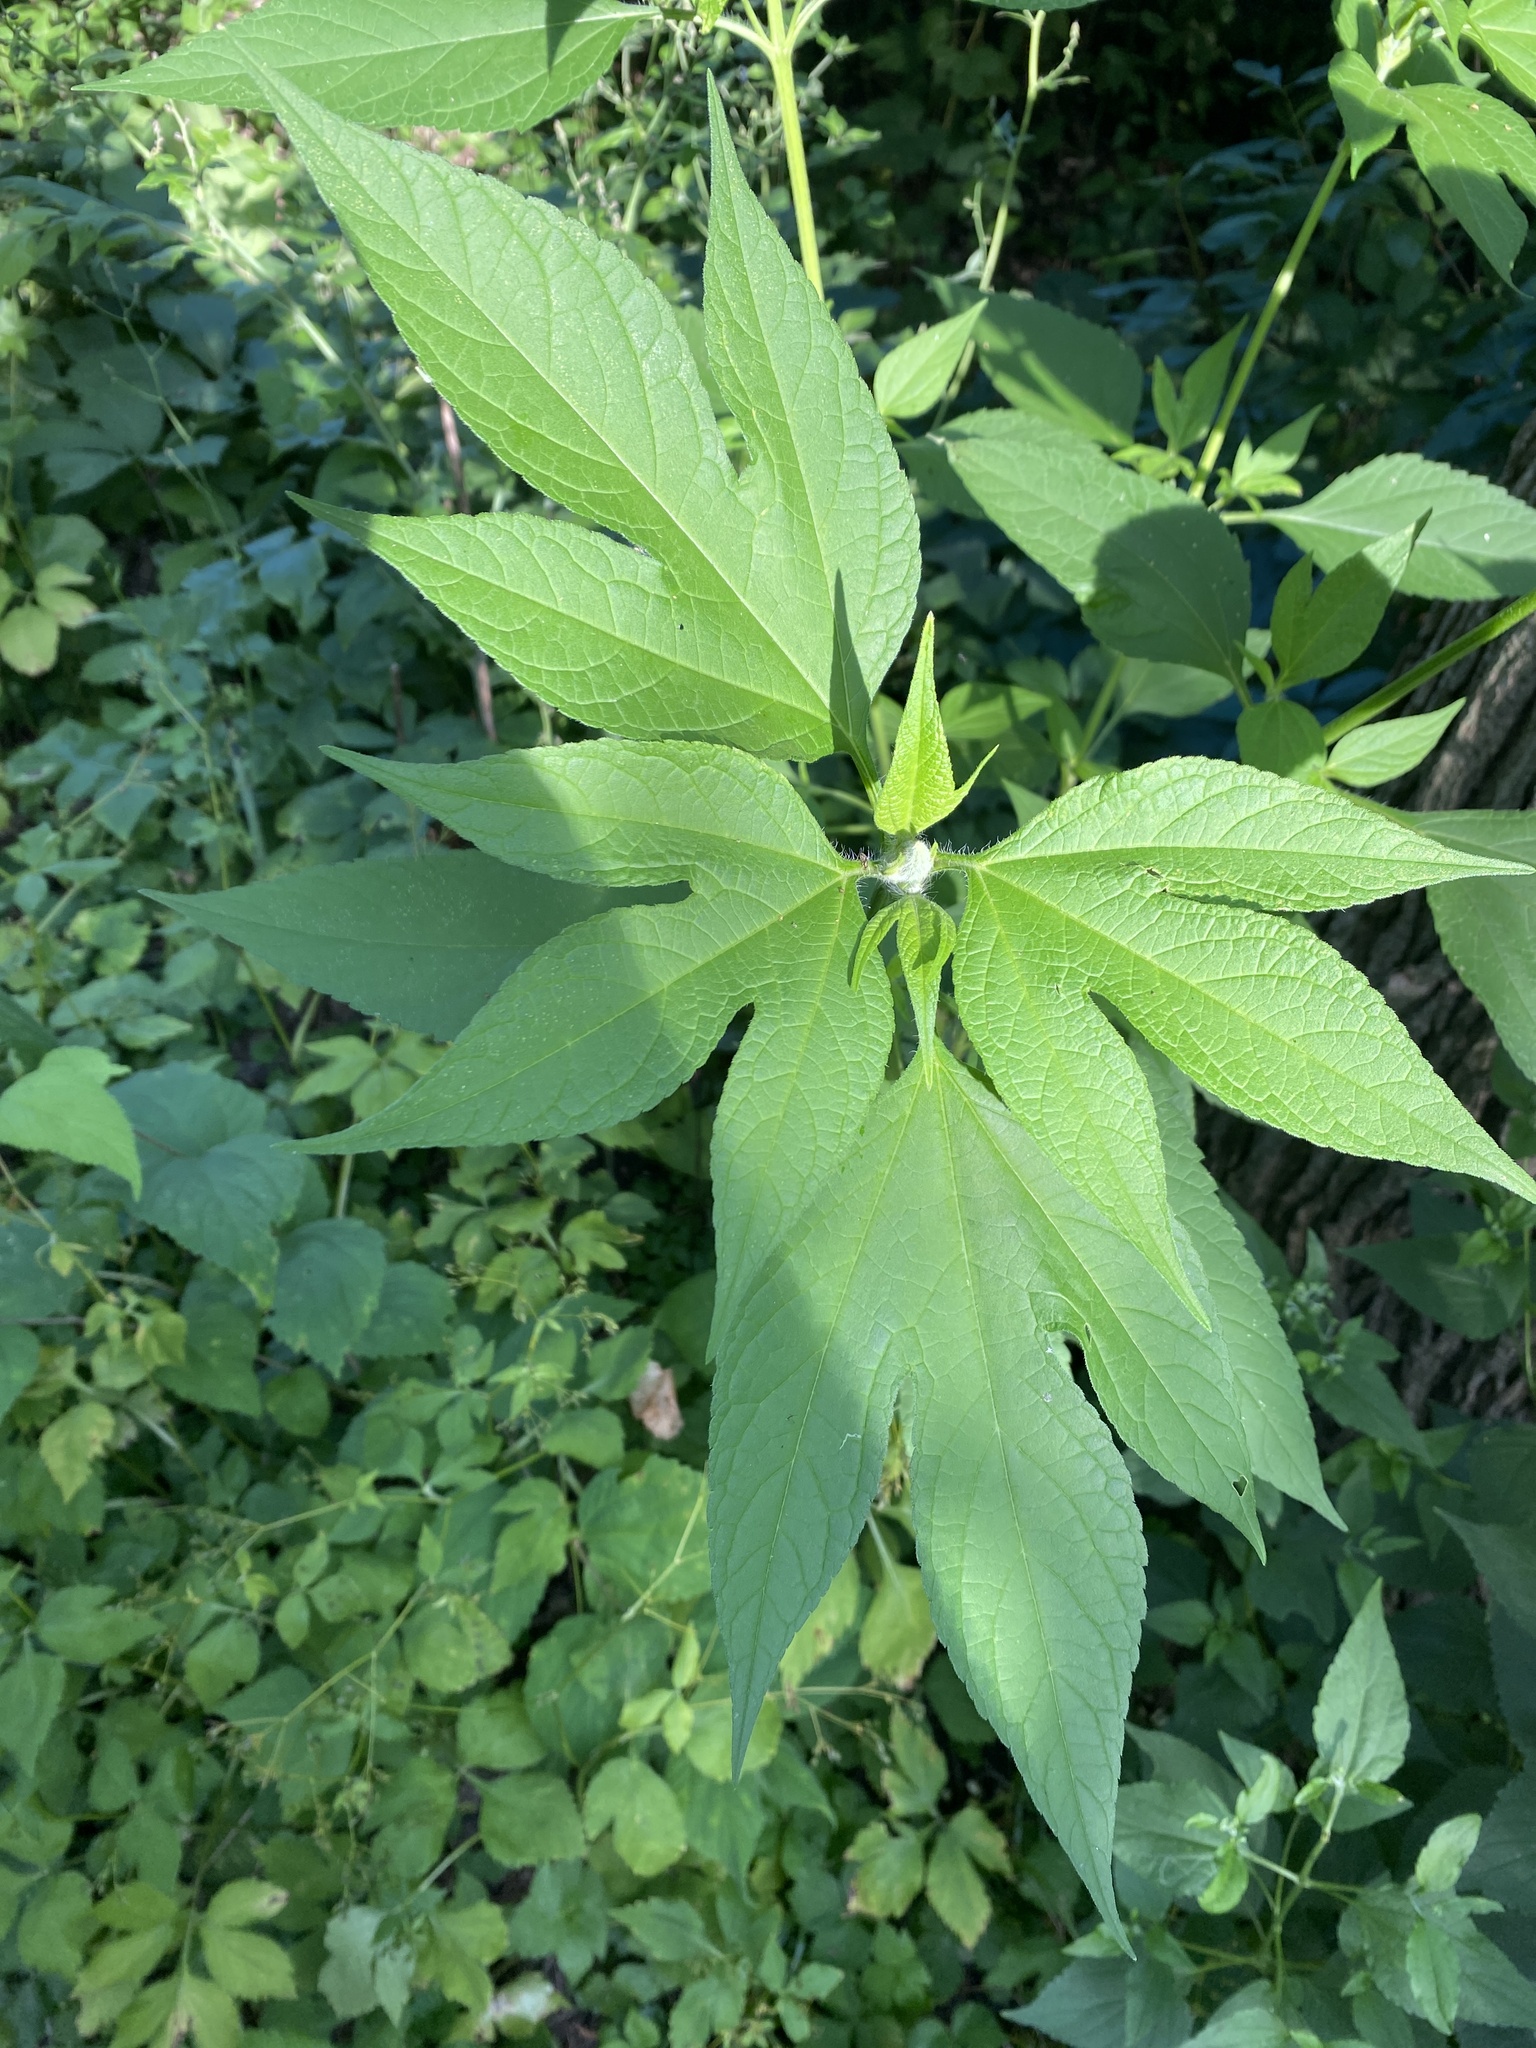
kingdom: Plantae
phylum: Tracheophyta
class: Magnoliopsida
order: Asterales
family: Asteraceae
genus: Ambrosia
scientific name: Ambrosia trifida
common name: Giant ragweed
